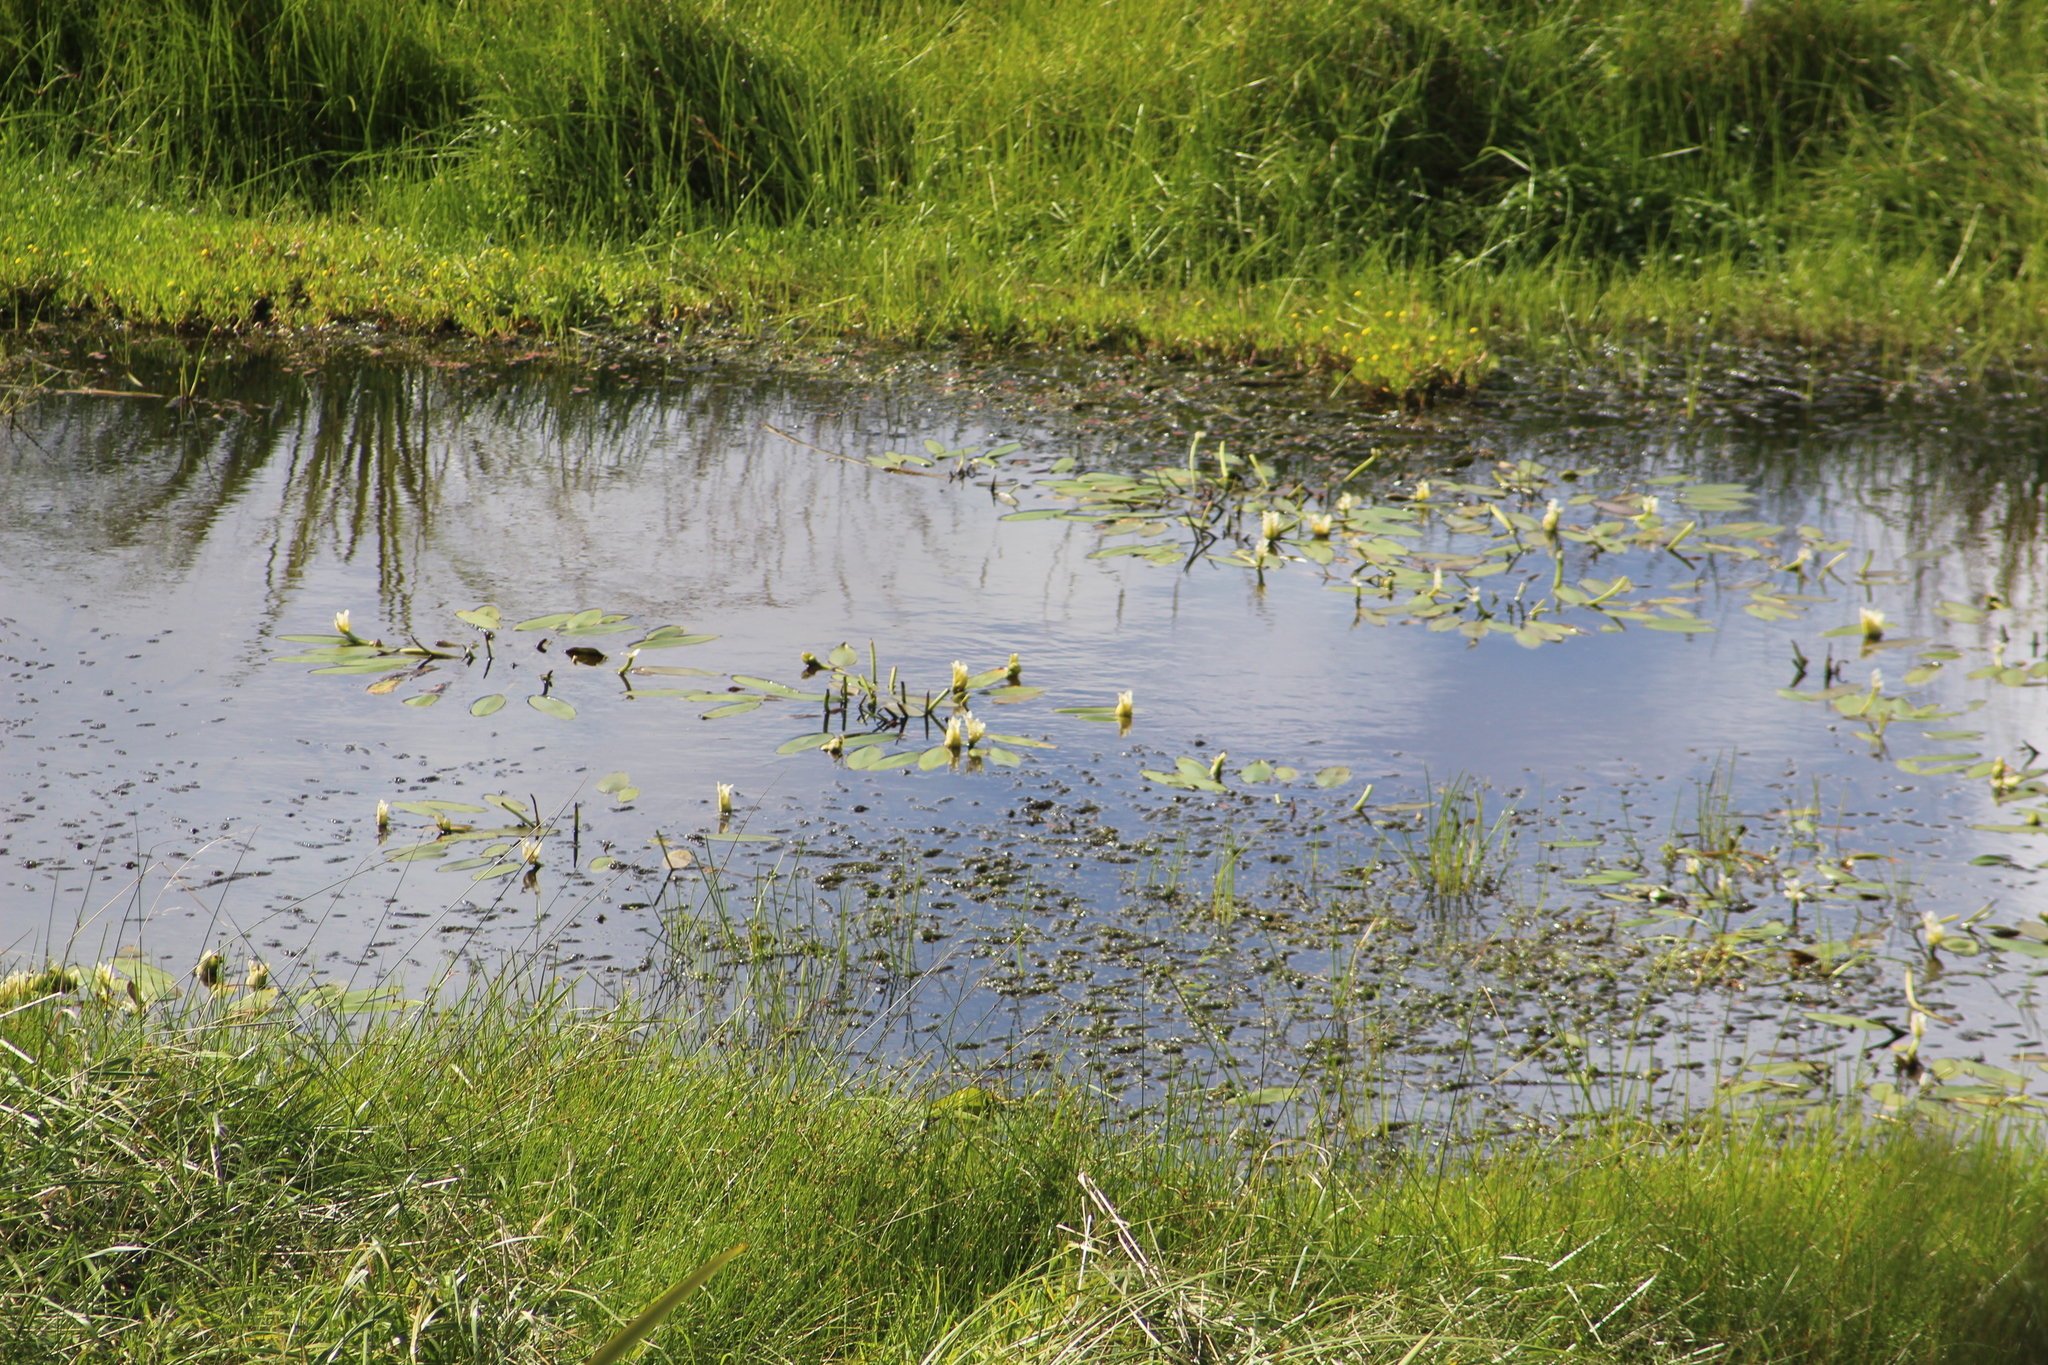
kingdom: Plantae
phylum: Tracheophyta
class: Liliopsida
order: Alismatales
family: Aponogetonaceae
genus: Aponogeton
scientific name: Aponogeton distachyos
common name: Cape-pondweed
